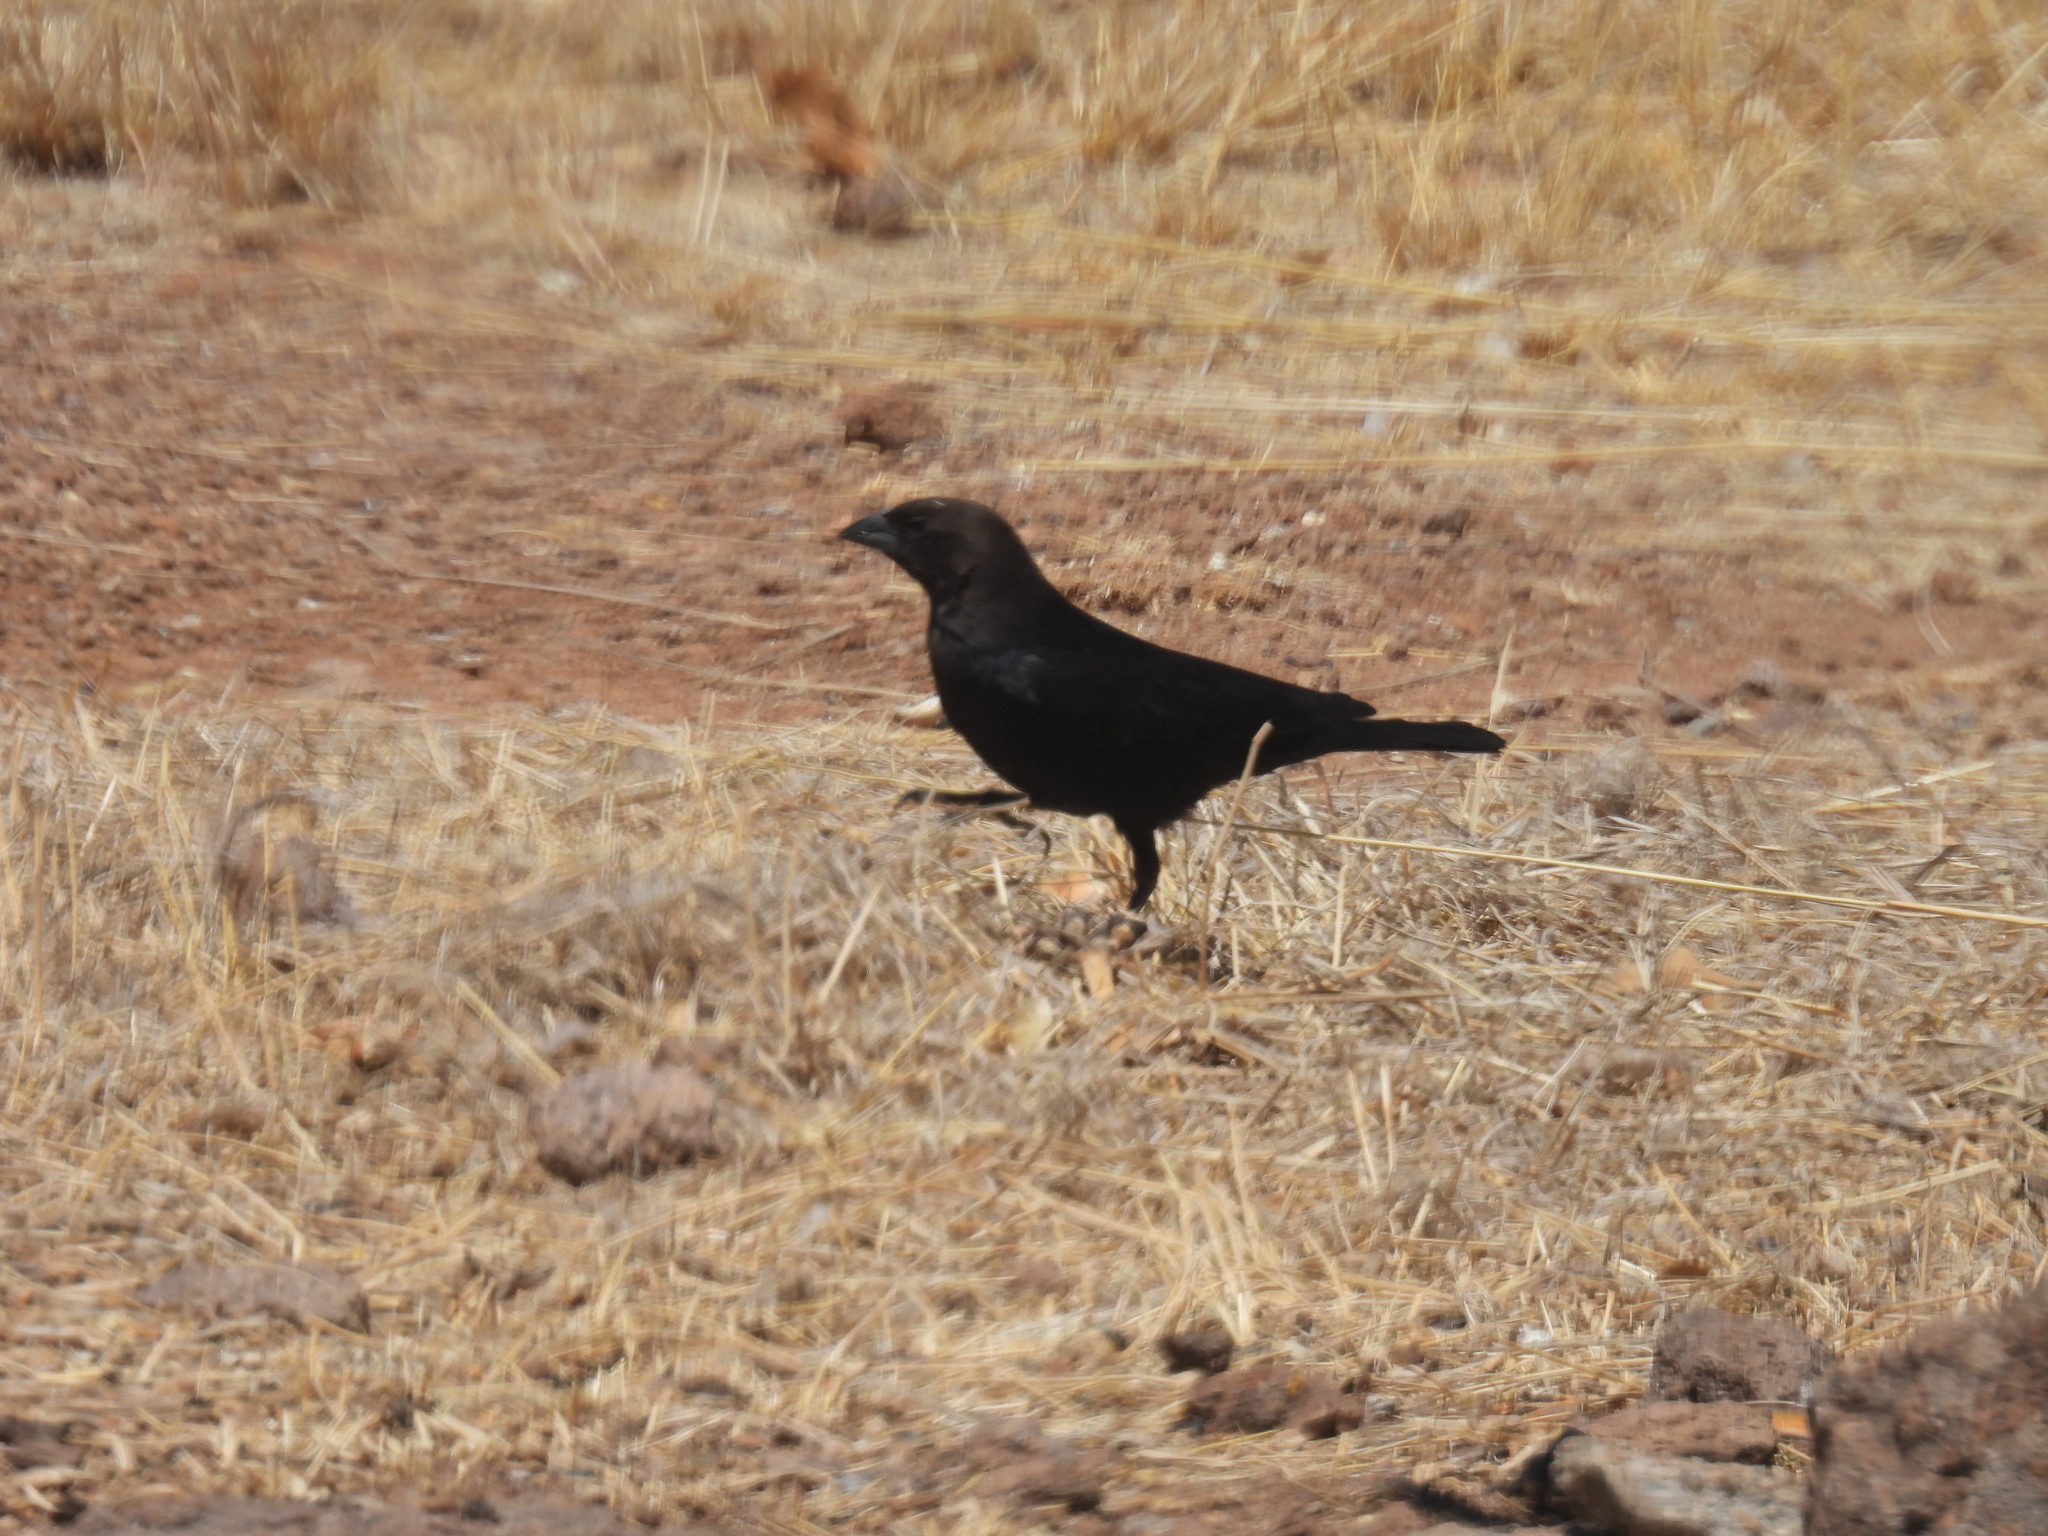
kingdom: Animalia
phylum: Chordata
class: Aves
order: Passeriformes
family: Icteridae
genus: Molothrus
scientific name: Molothrus ater
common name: Brown-headed cowbird
